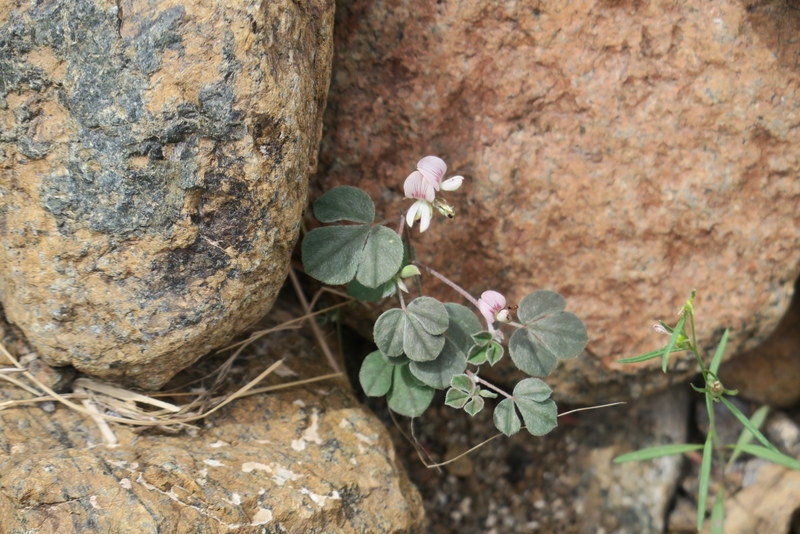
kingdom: Plantae
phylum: Tracheophyta
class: Magnoliopsida
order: Fabales
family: Fabaceae
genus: Argyrolobium
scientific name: Argyrolobium roseum
